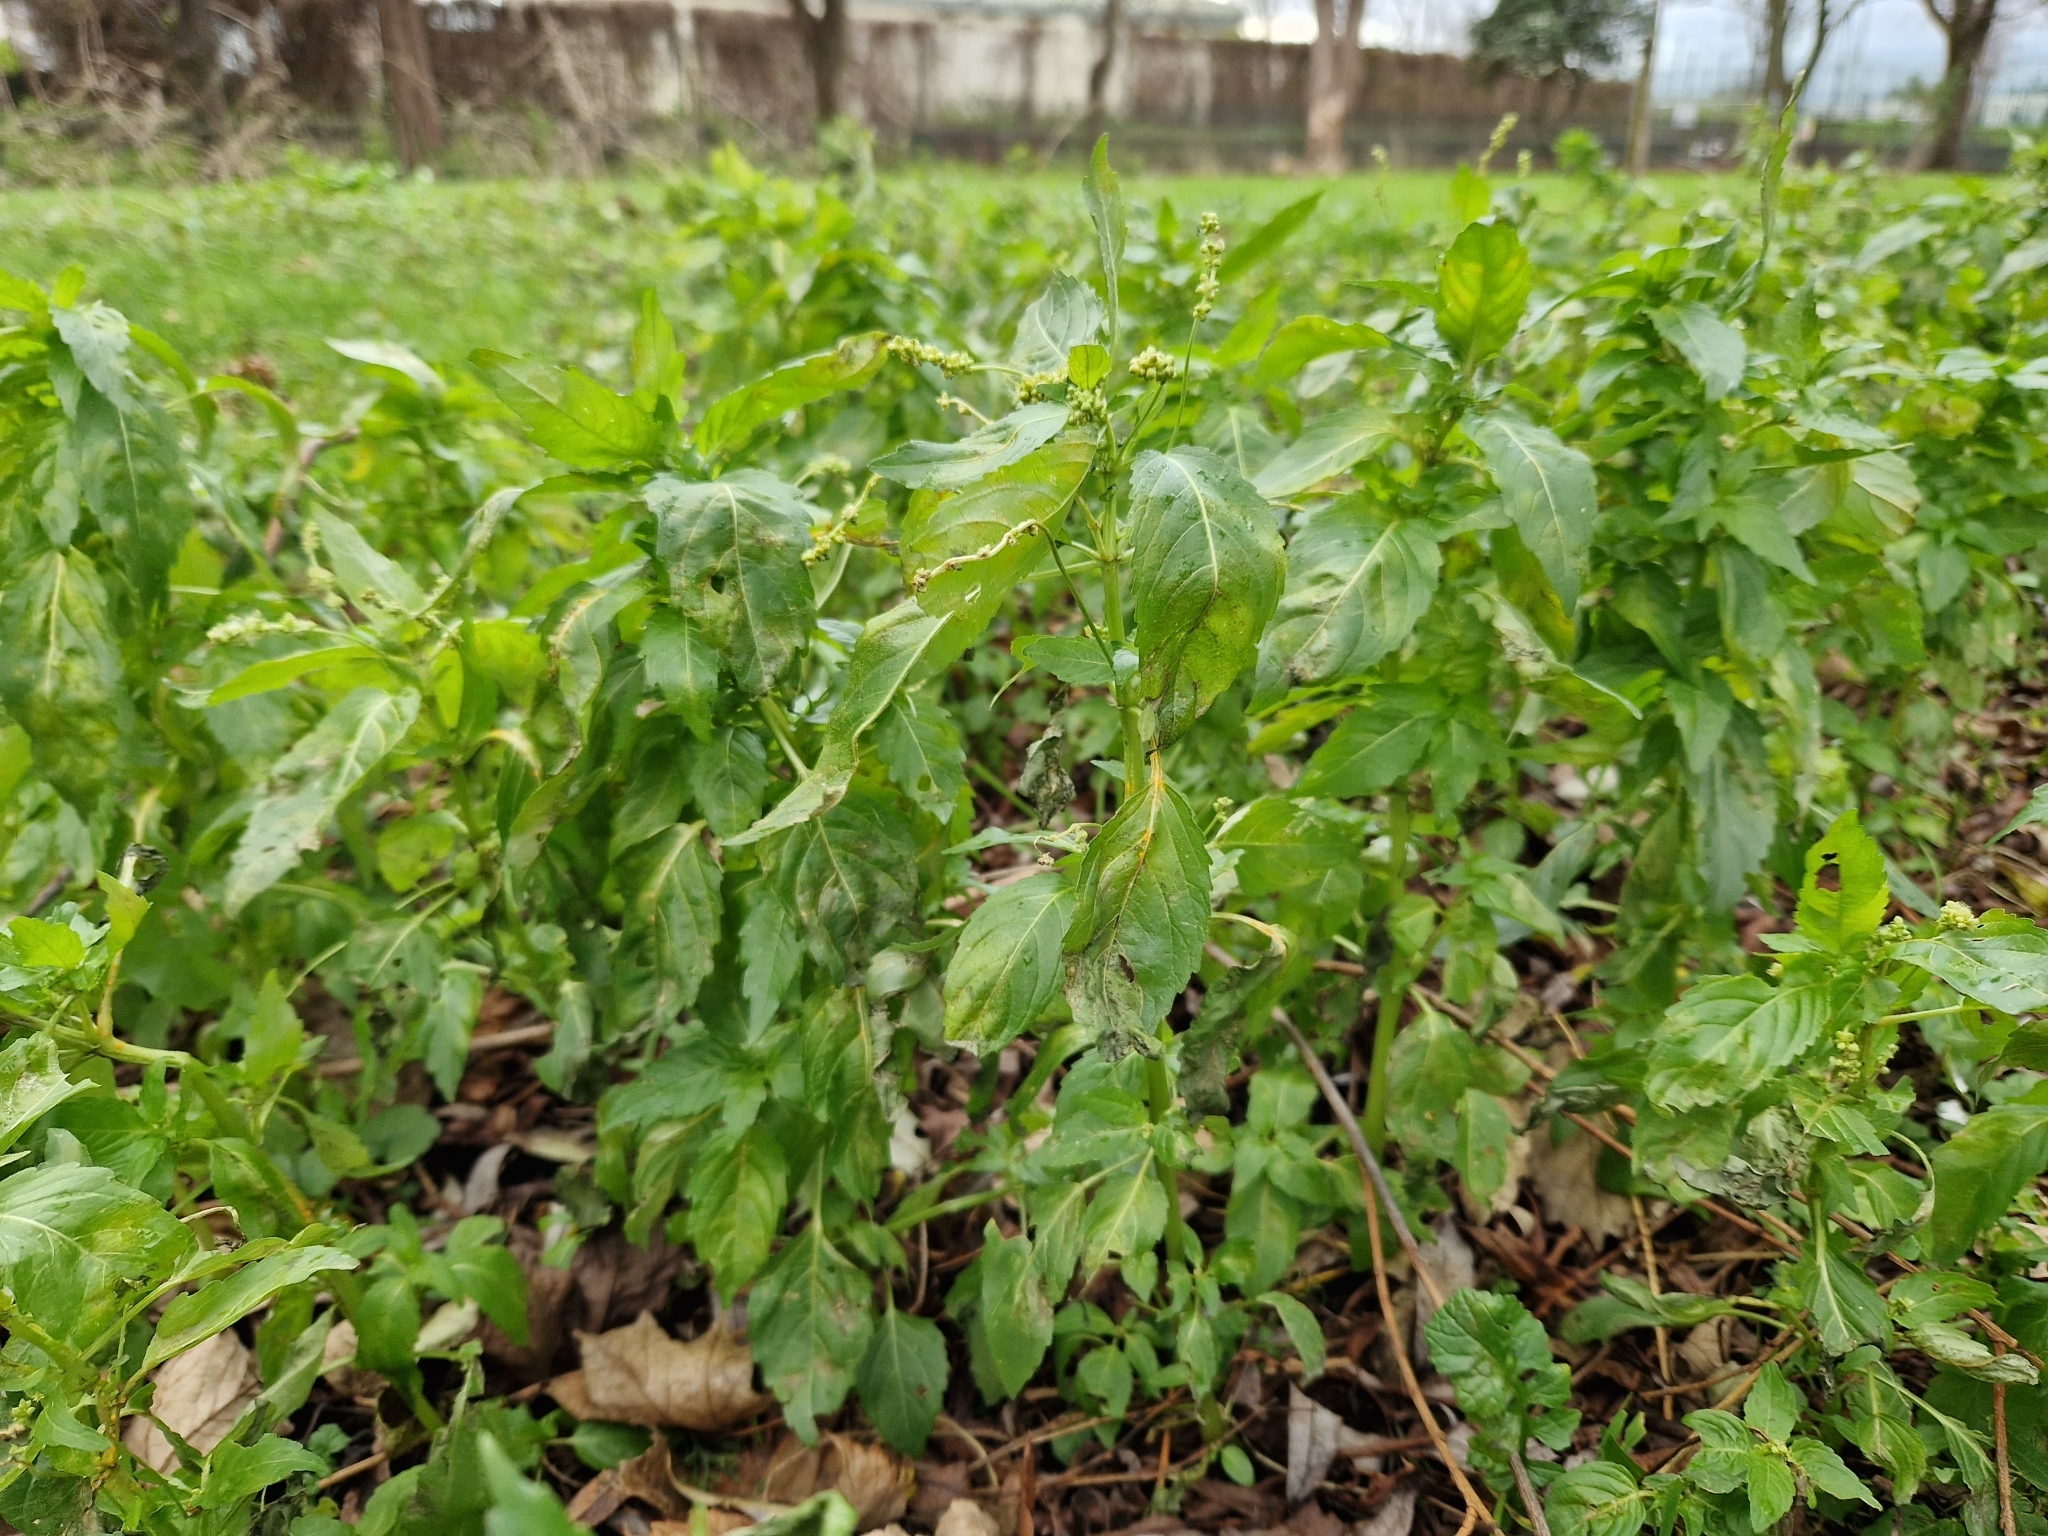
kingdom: Plantae
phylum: Tracheophyta
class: Magnoliopsida
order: Malpighiales
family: Euphorbiaceae
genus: Mercurialis
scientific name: Mercurialis annua
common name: Annual mercury
